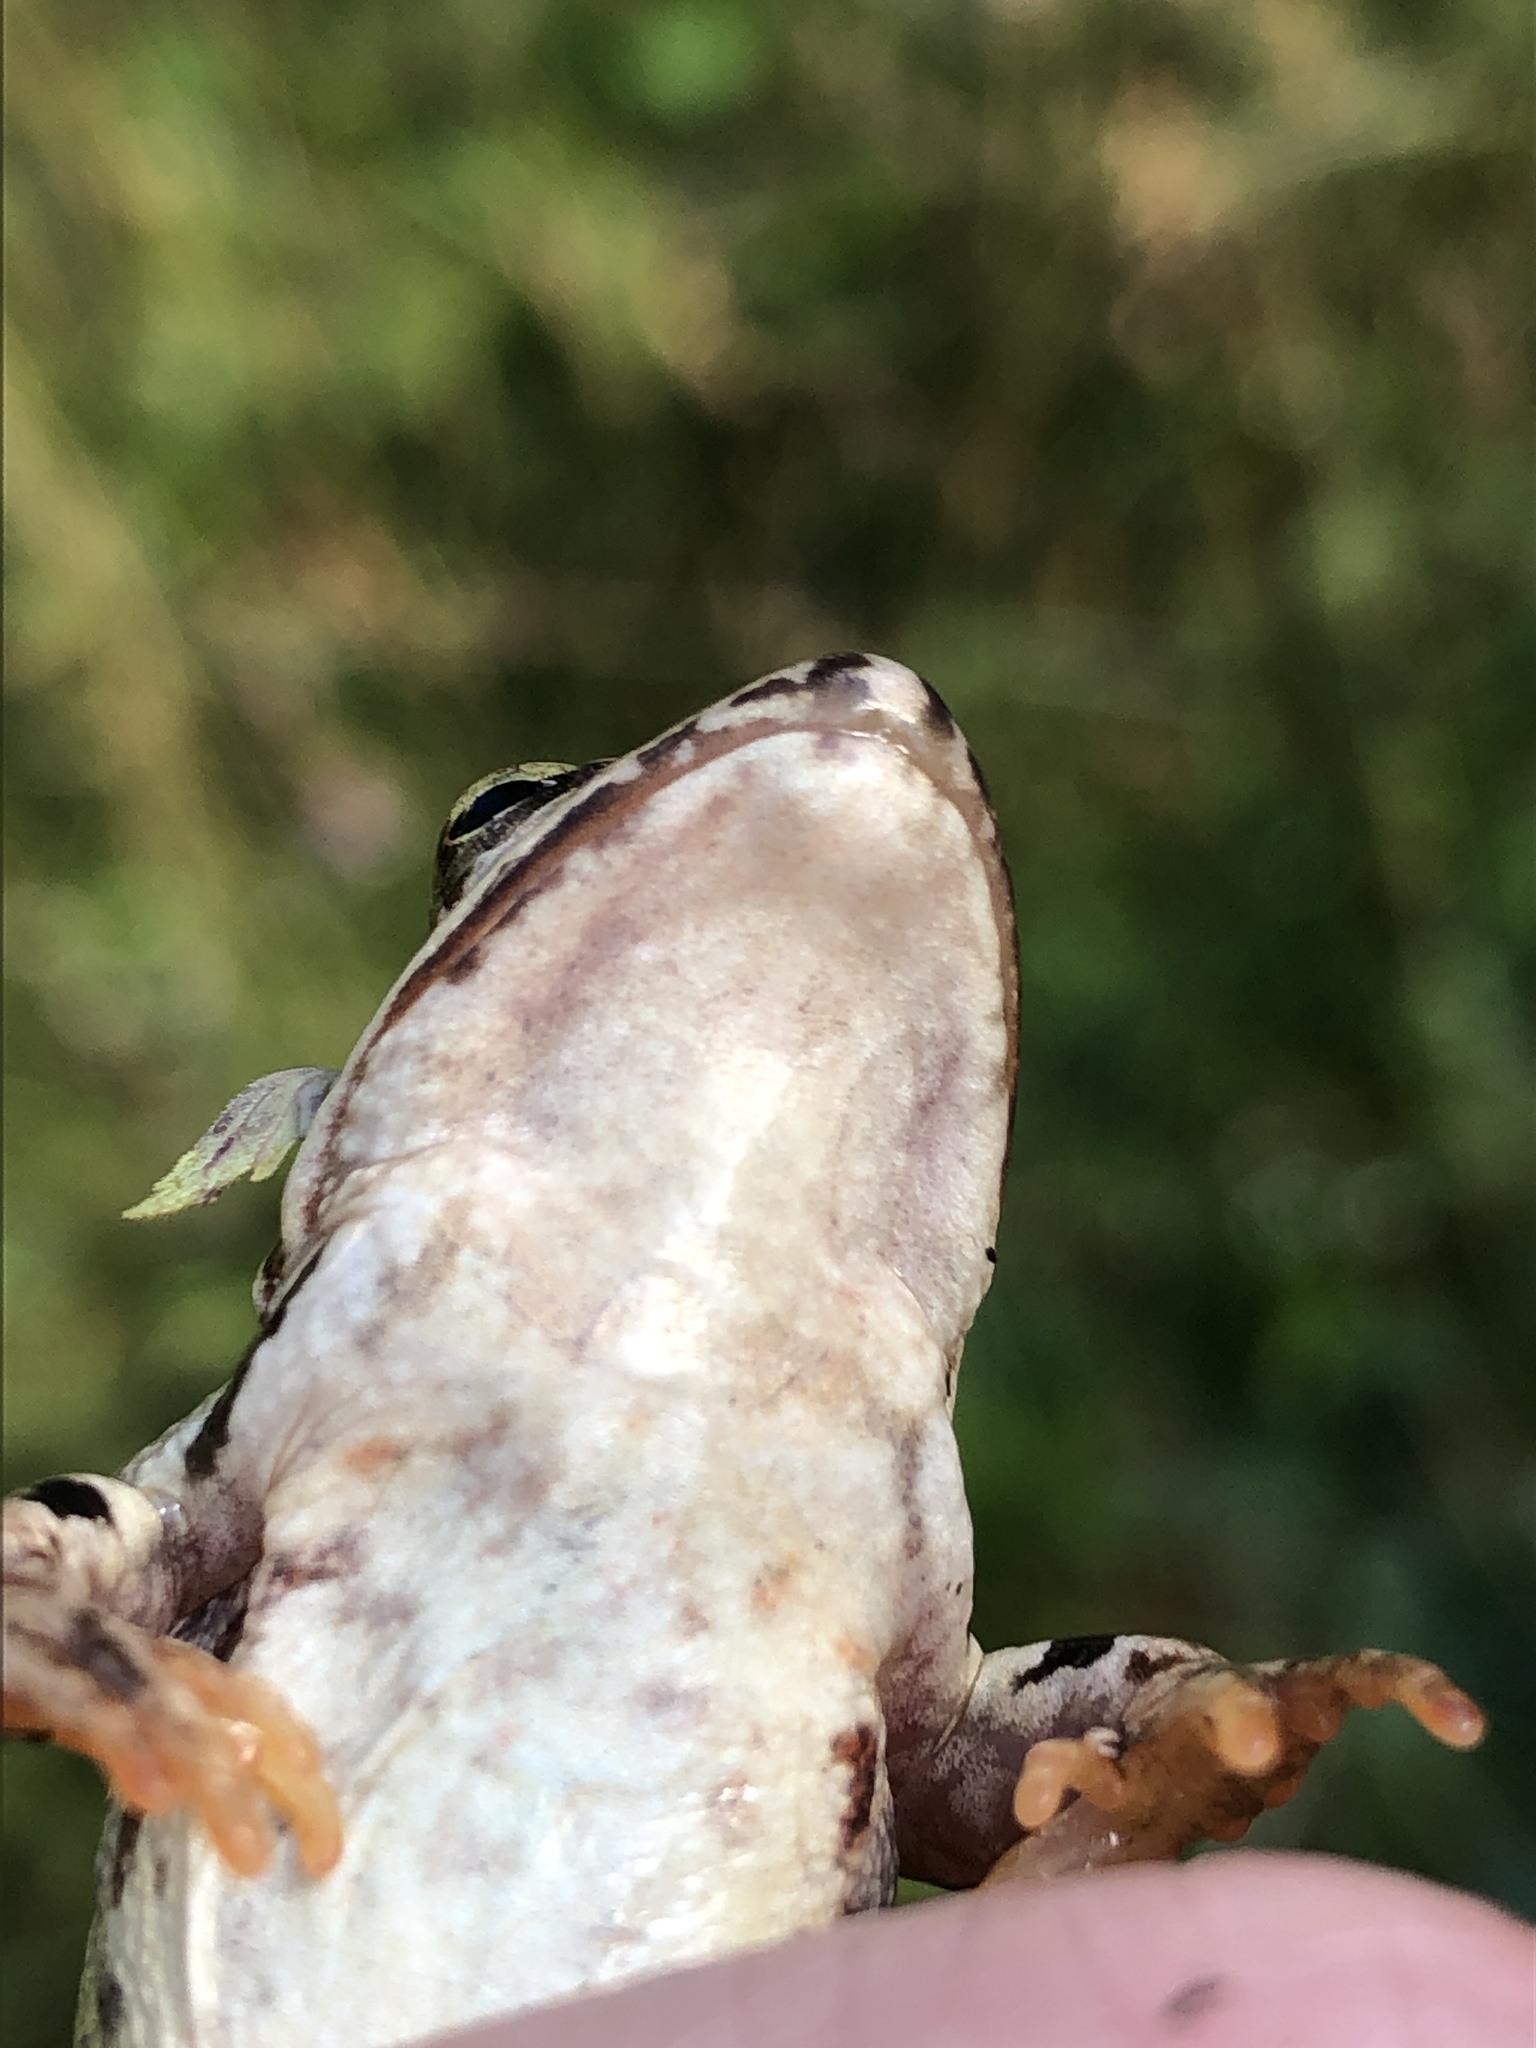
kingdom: Animalia
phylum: Chordata
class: Amphibia
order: Anura
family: Ranidae
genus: Rana
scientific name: Rana temporaria
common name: Common frog
